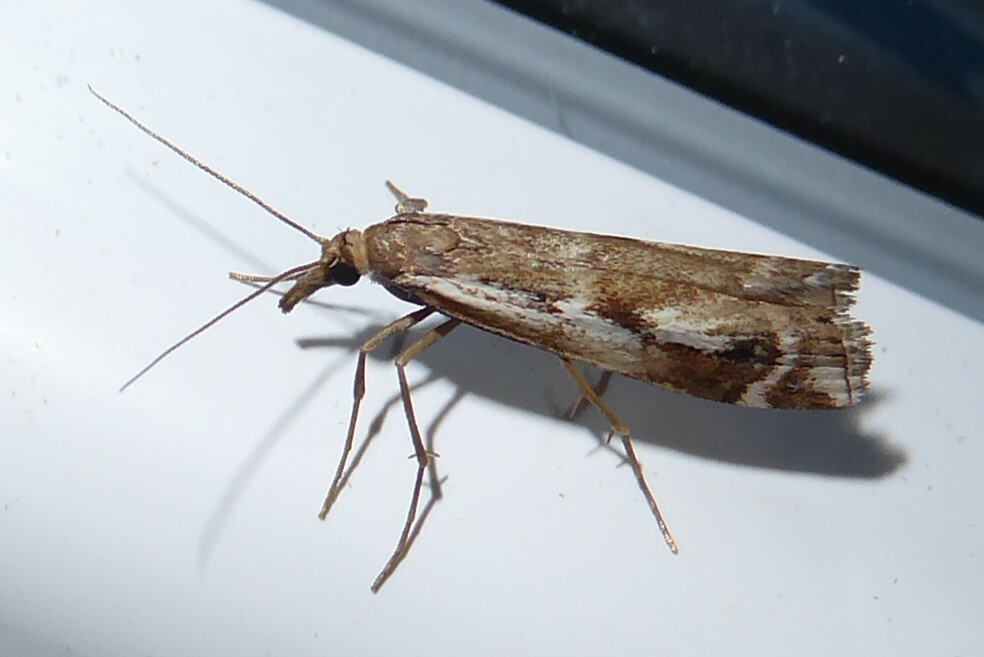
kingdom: Animalia
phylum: Arthropoda
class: Insecta
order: Lepidoptera
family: Crambidae
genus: Orocrambus
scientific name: Orocrambus vulgaris
